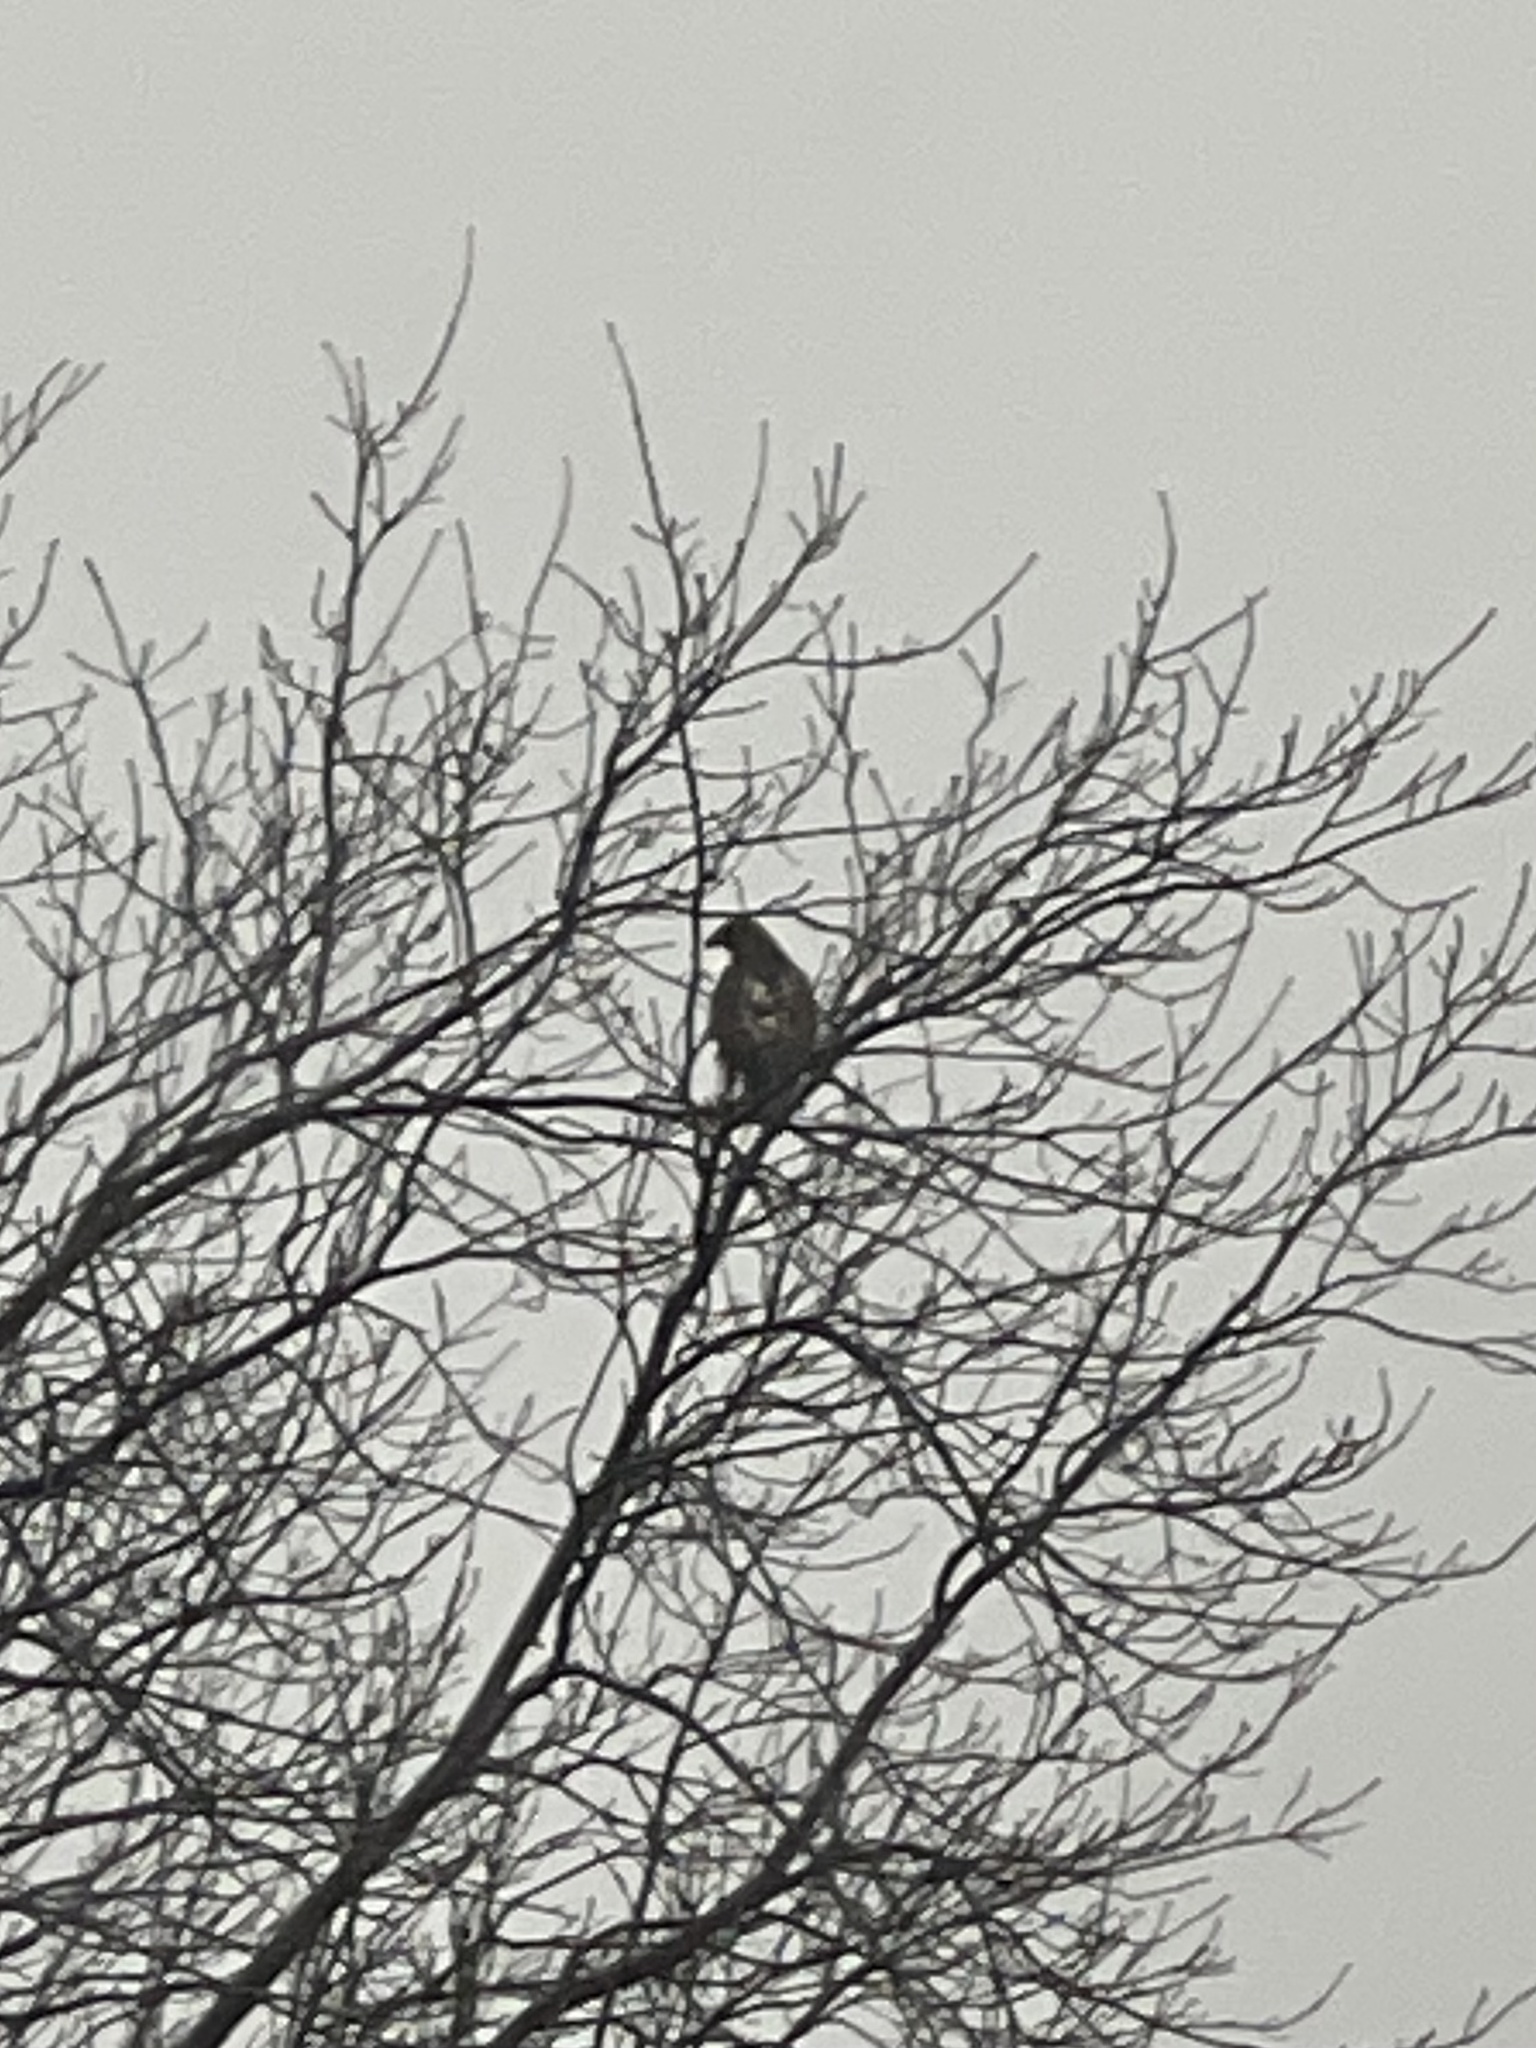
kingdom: Animalia
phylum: Chordata
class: Aves
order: Accipitriformes
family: Accipitridae
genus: Buteo
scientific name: Buteo jamaicensis
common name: Red-tailed hawk
